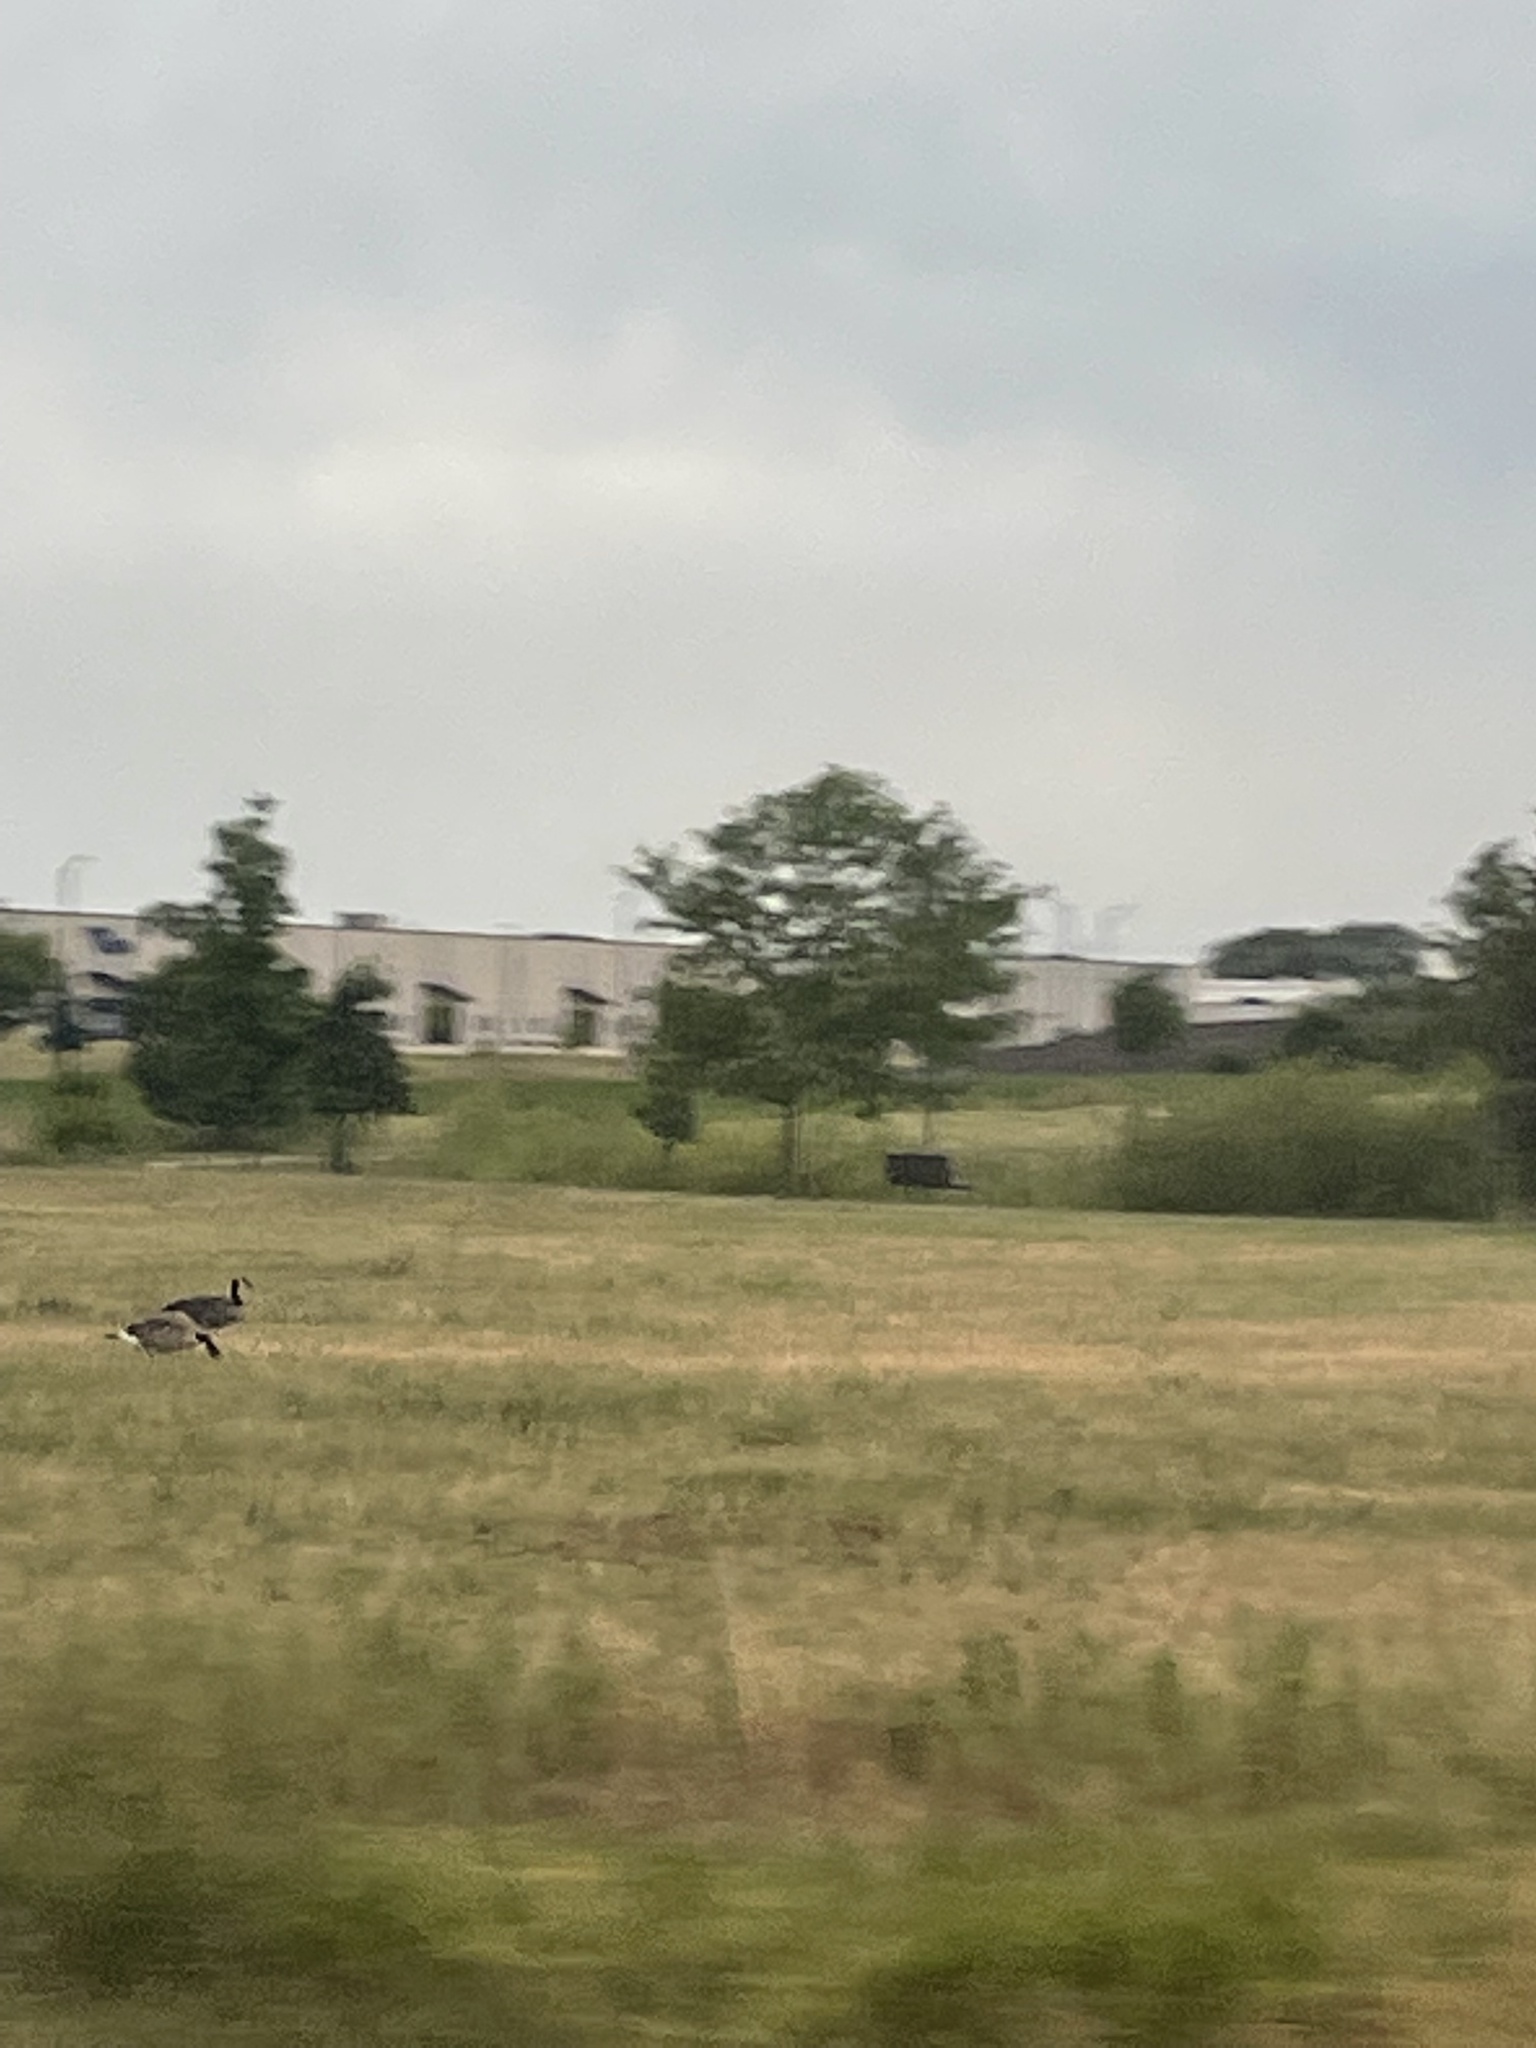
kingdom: Animalia
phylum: Chordata
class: Aves
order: Anseriformes
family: Anatidae
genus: Branta
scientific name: Branta canadensis
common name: Canada goose
